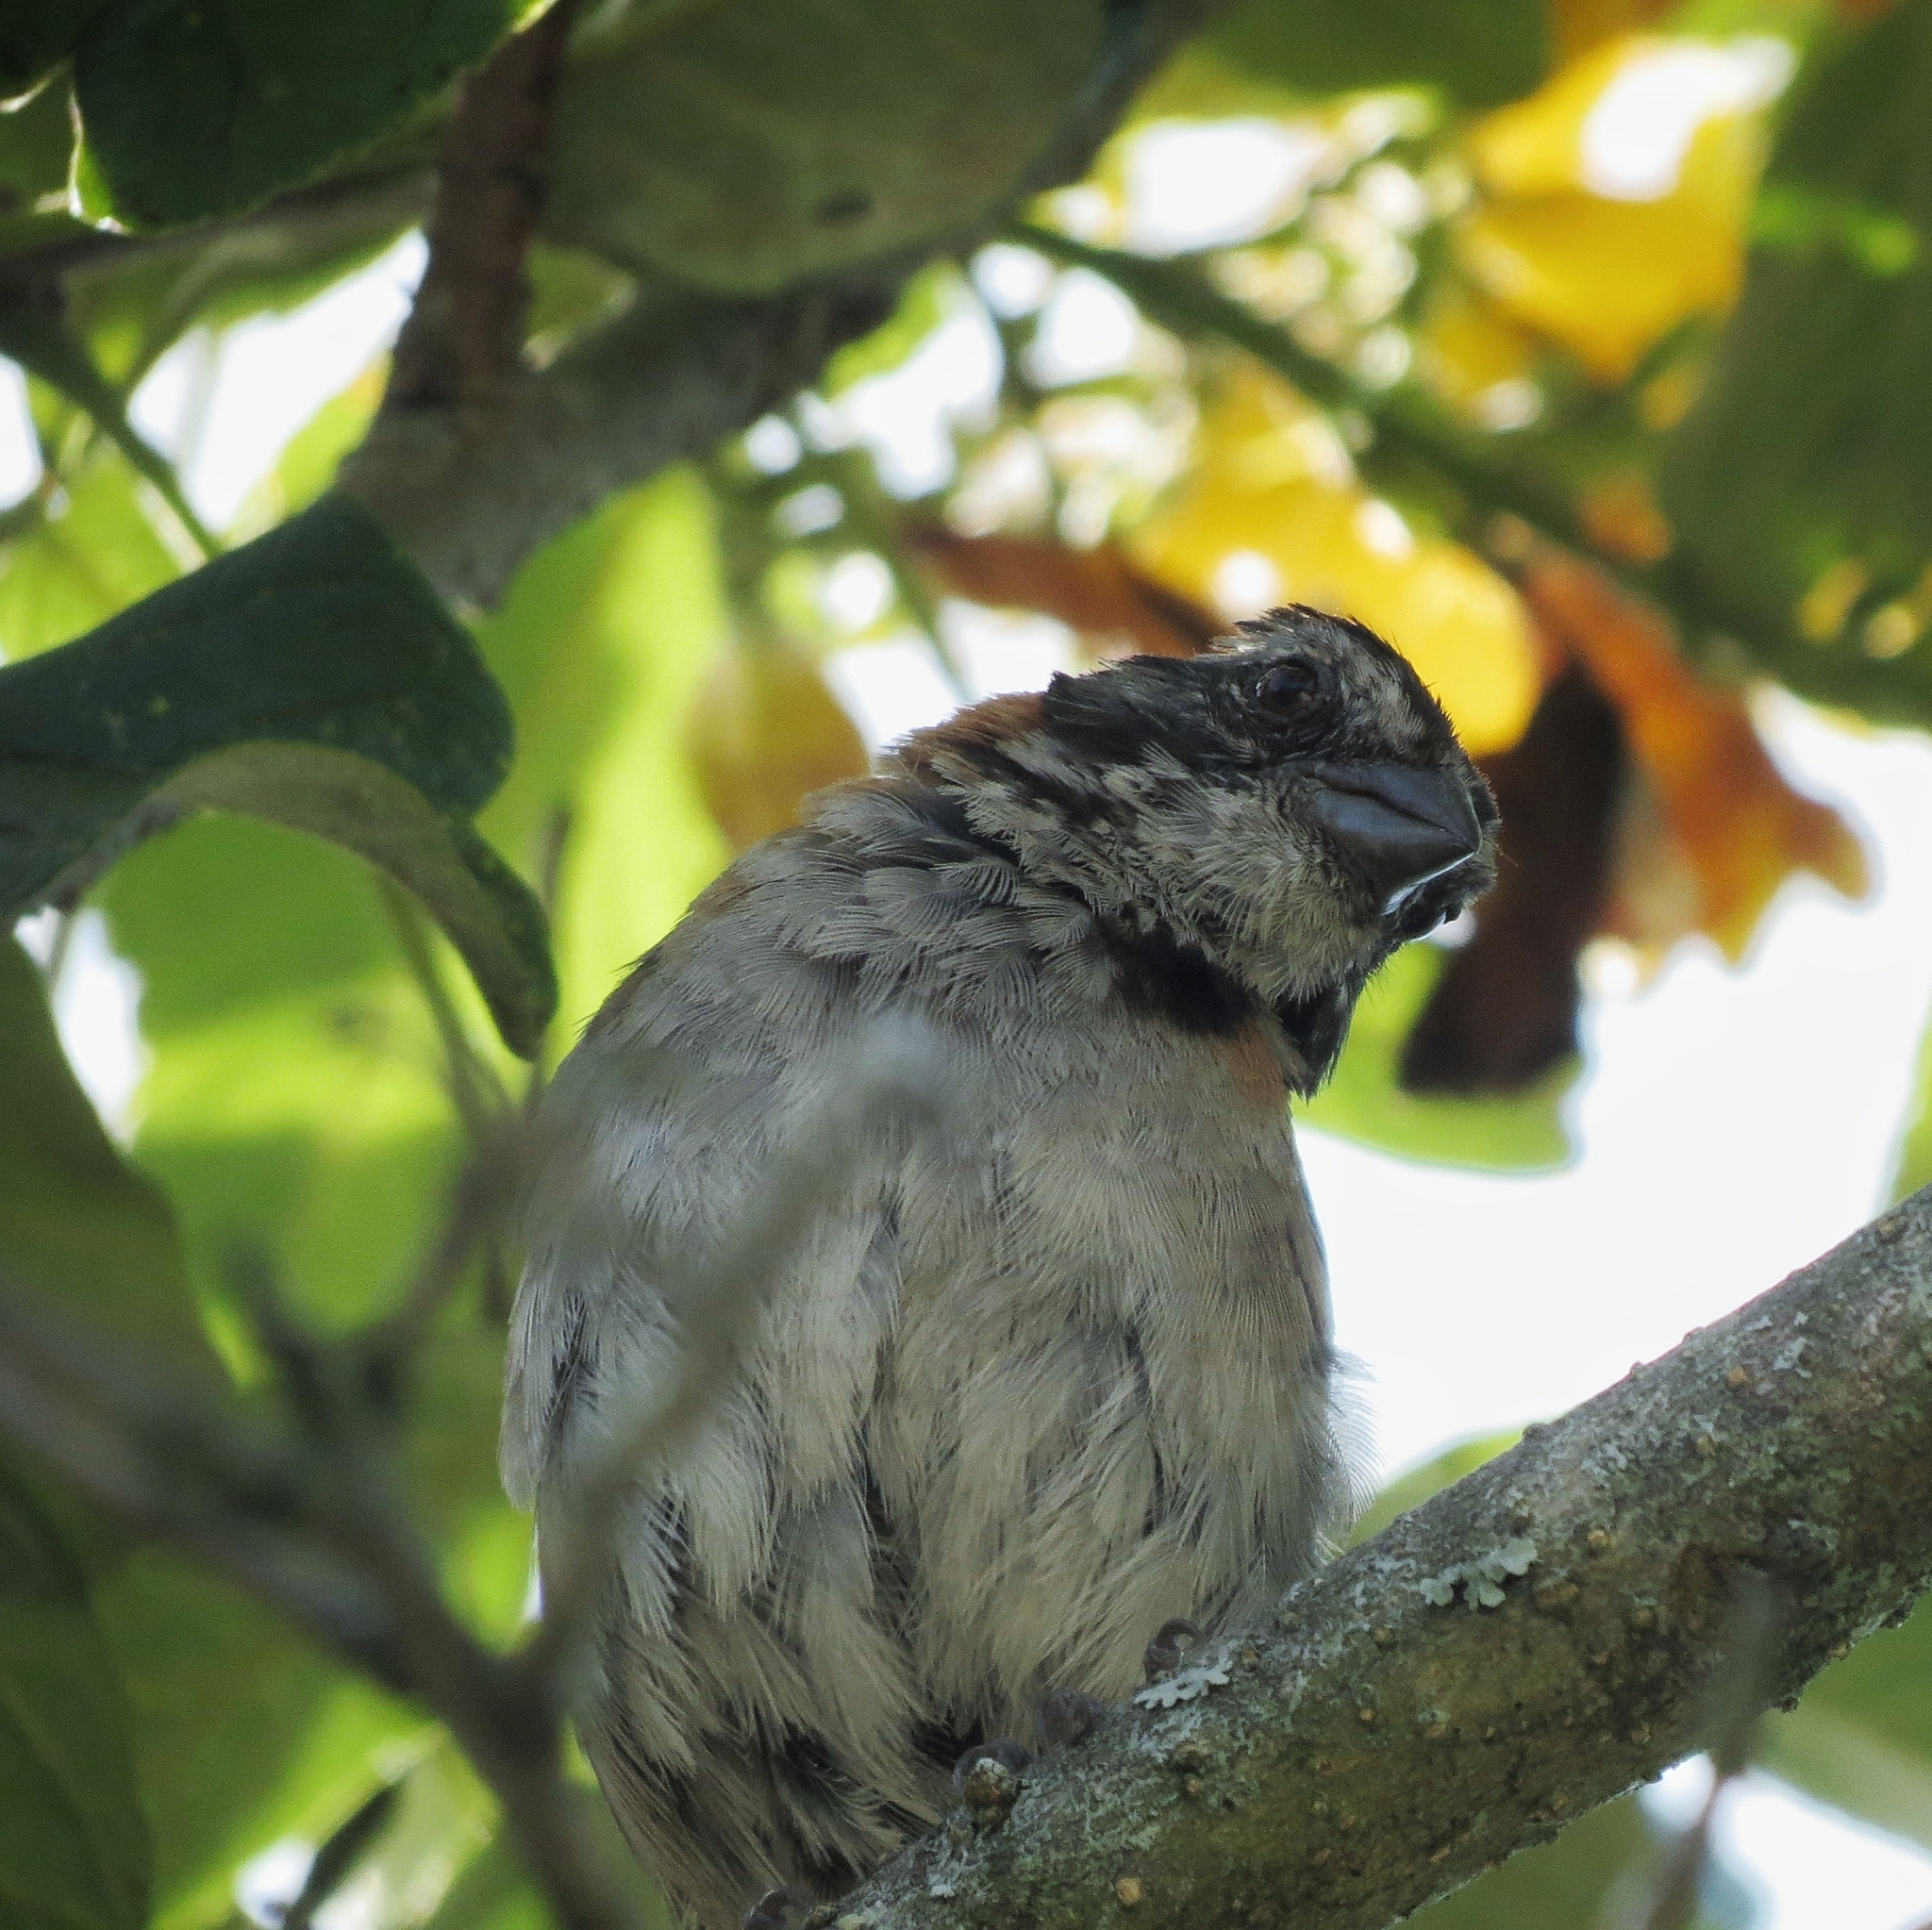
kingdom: Animalia
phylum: Chordata
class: Aves
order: Passeriformes
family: Passerellidae
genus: Zonotrichia
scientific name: Zonotrichia capensis
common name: Rufous-collared sparrow
